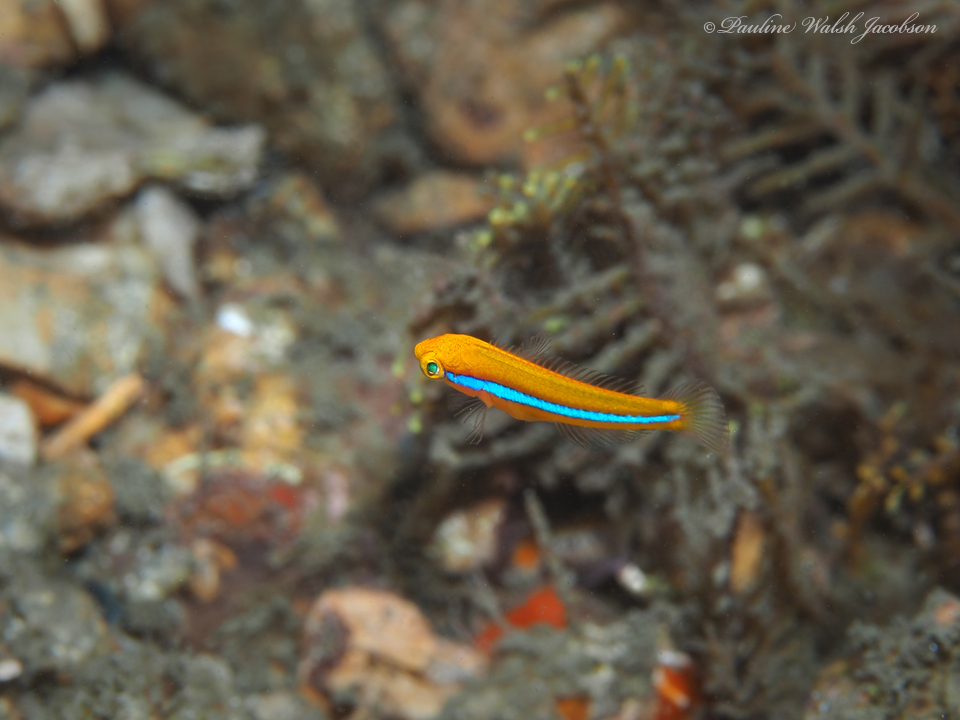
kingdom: Animalia
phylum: Chordata
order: Perciformes
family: Labridae
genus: Halichoeres
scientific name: Halichoeres garnoti
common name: Yellowhead wrasse
